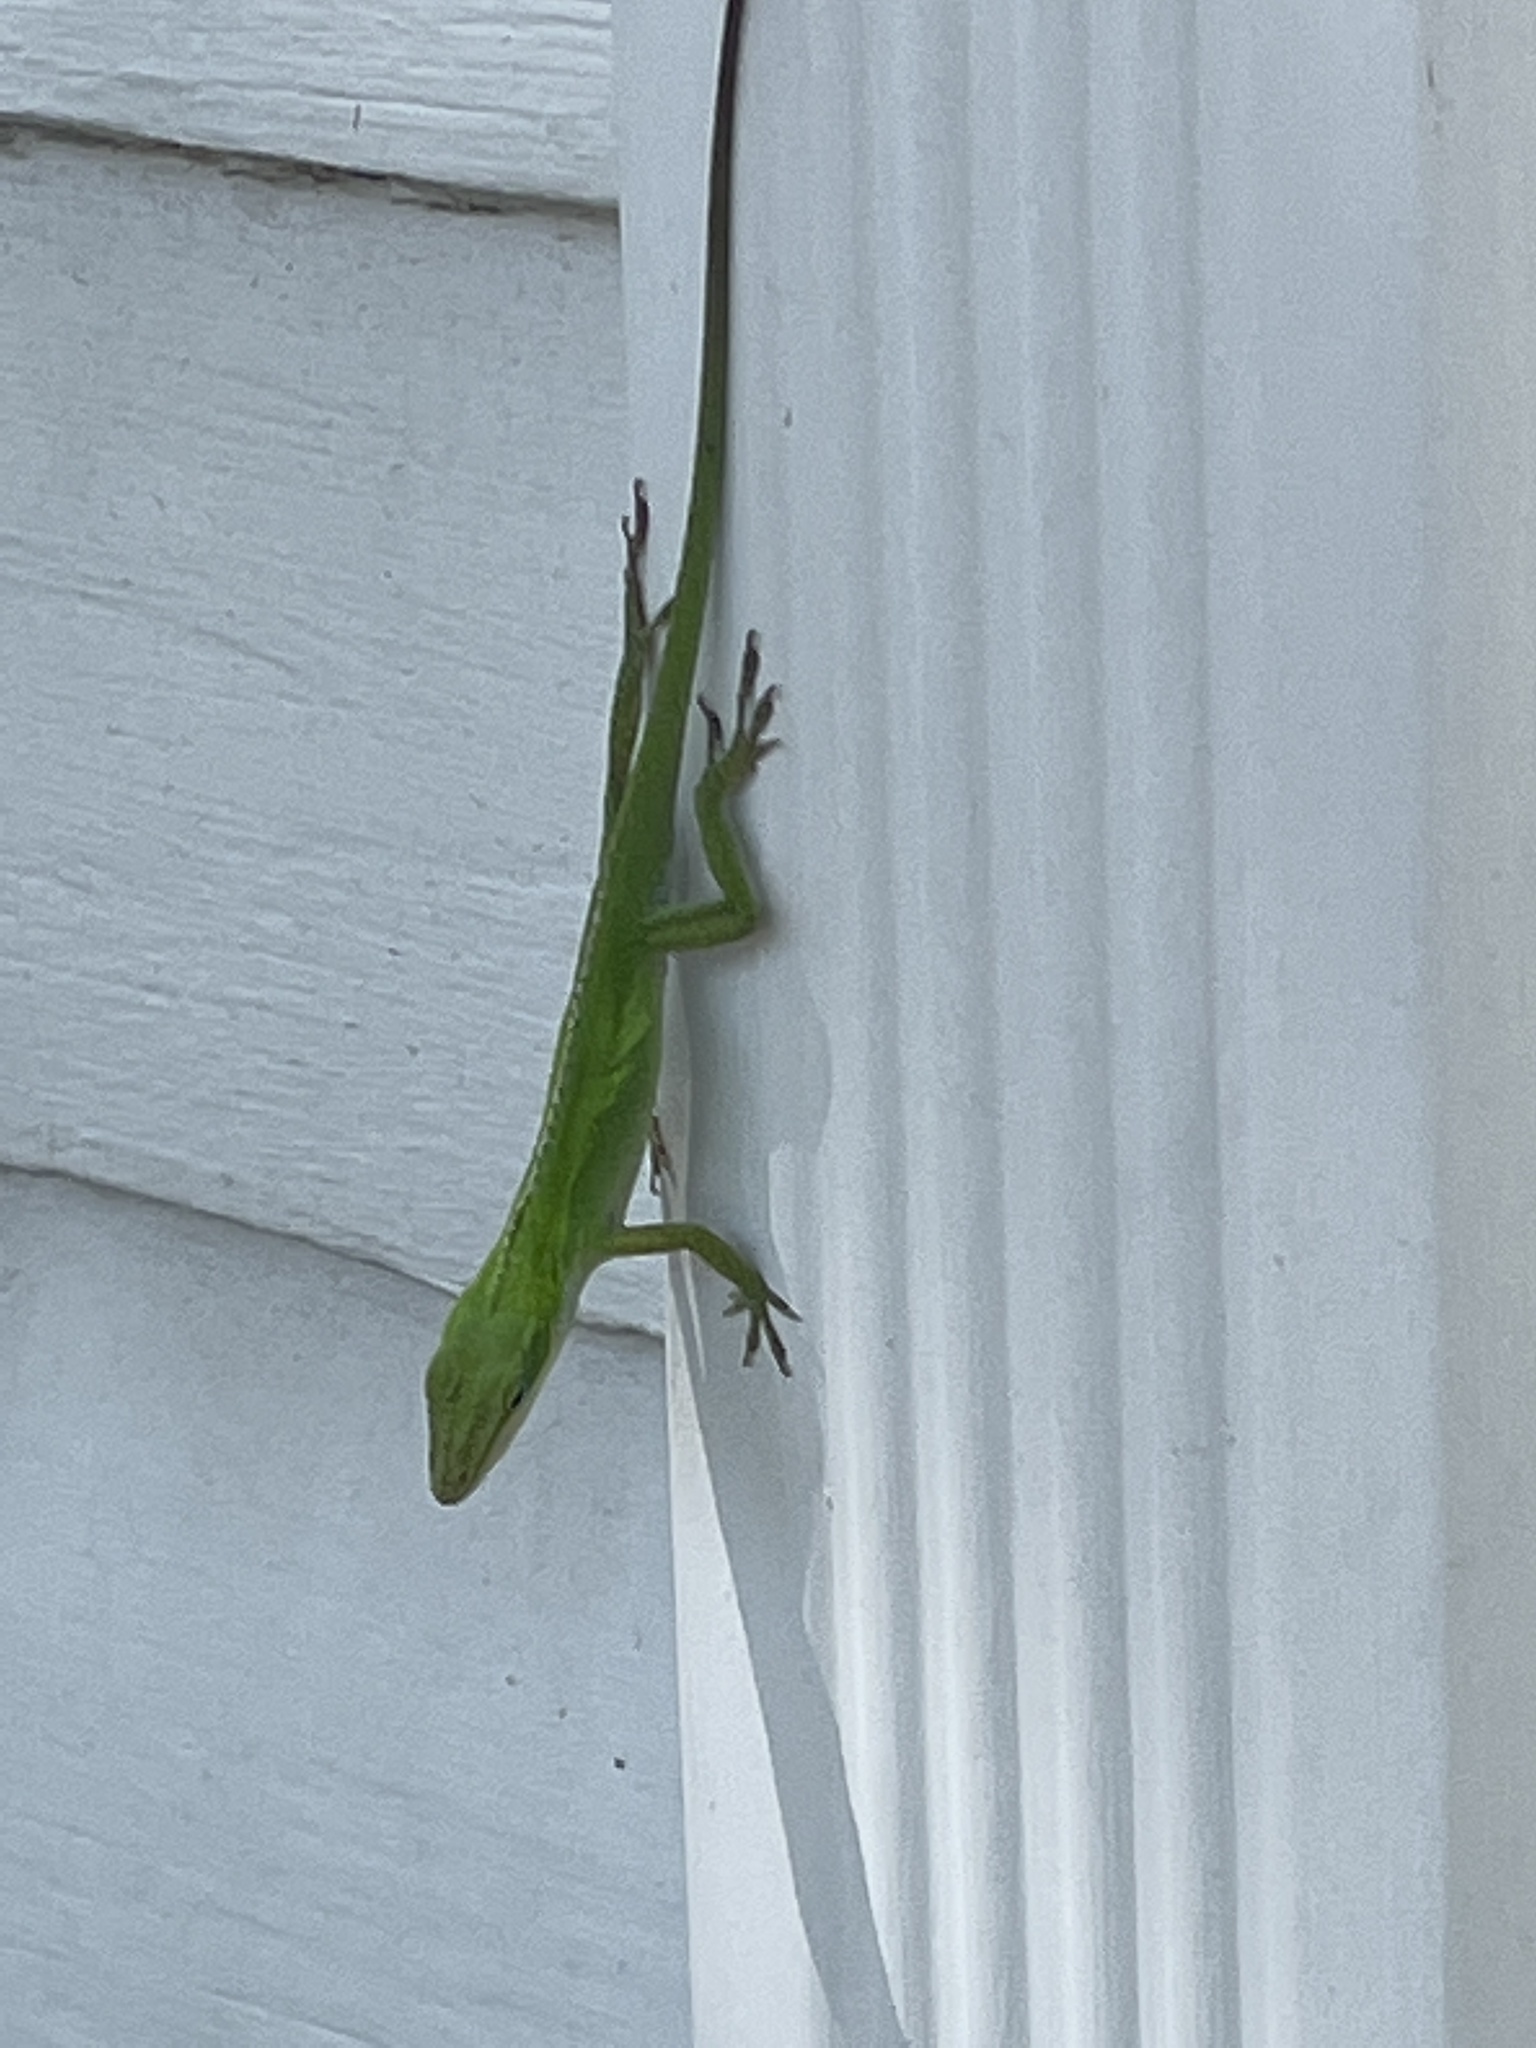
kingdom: Animalia
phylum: Chordata
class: Squamata
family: Dactyloidae
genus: Anolis
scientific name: Anolis carolinensis
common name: Green anole
